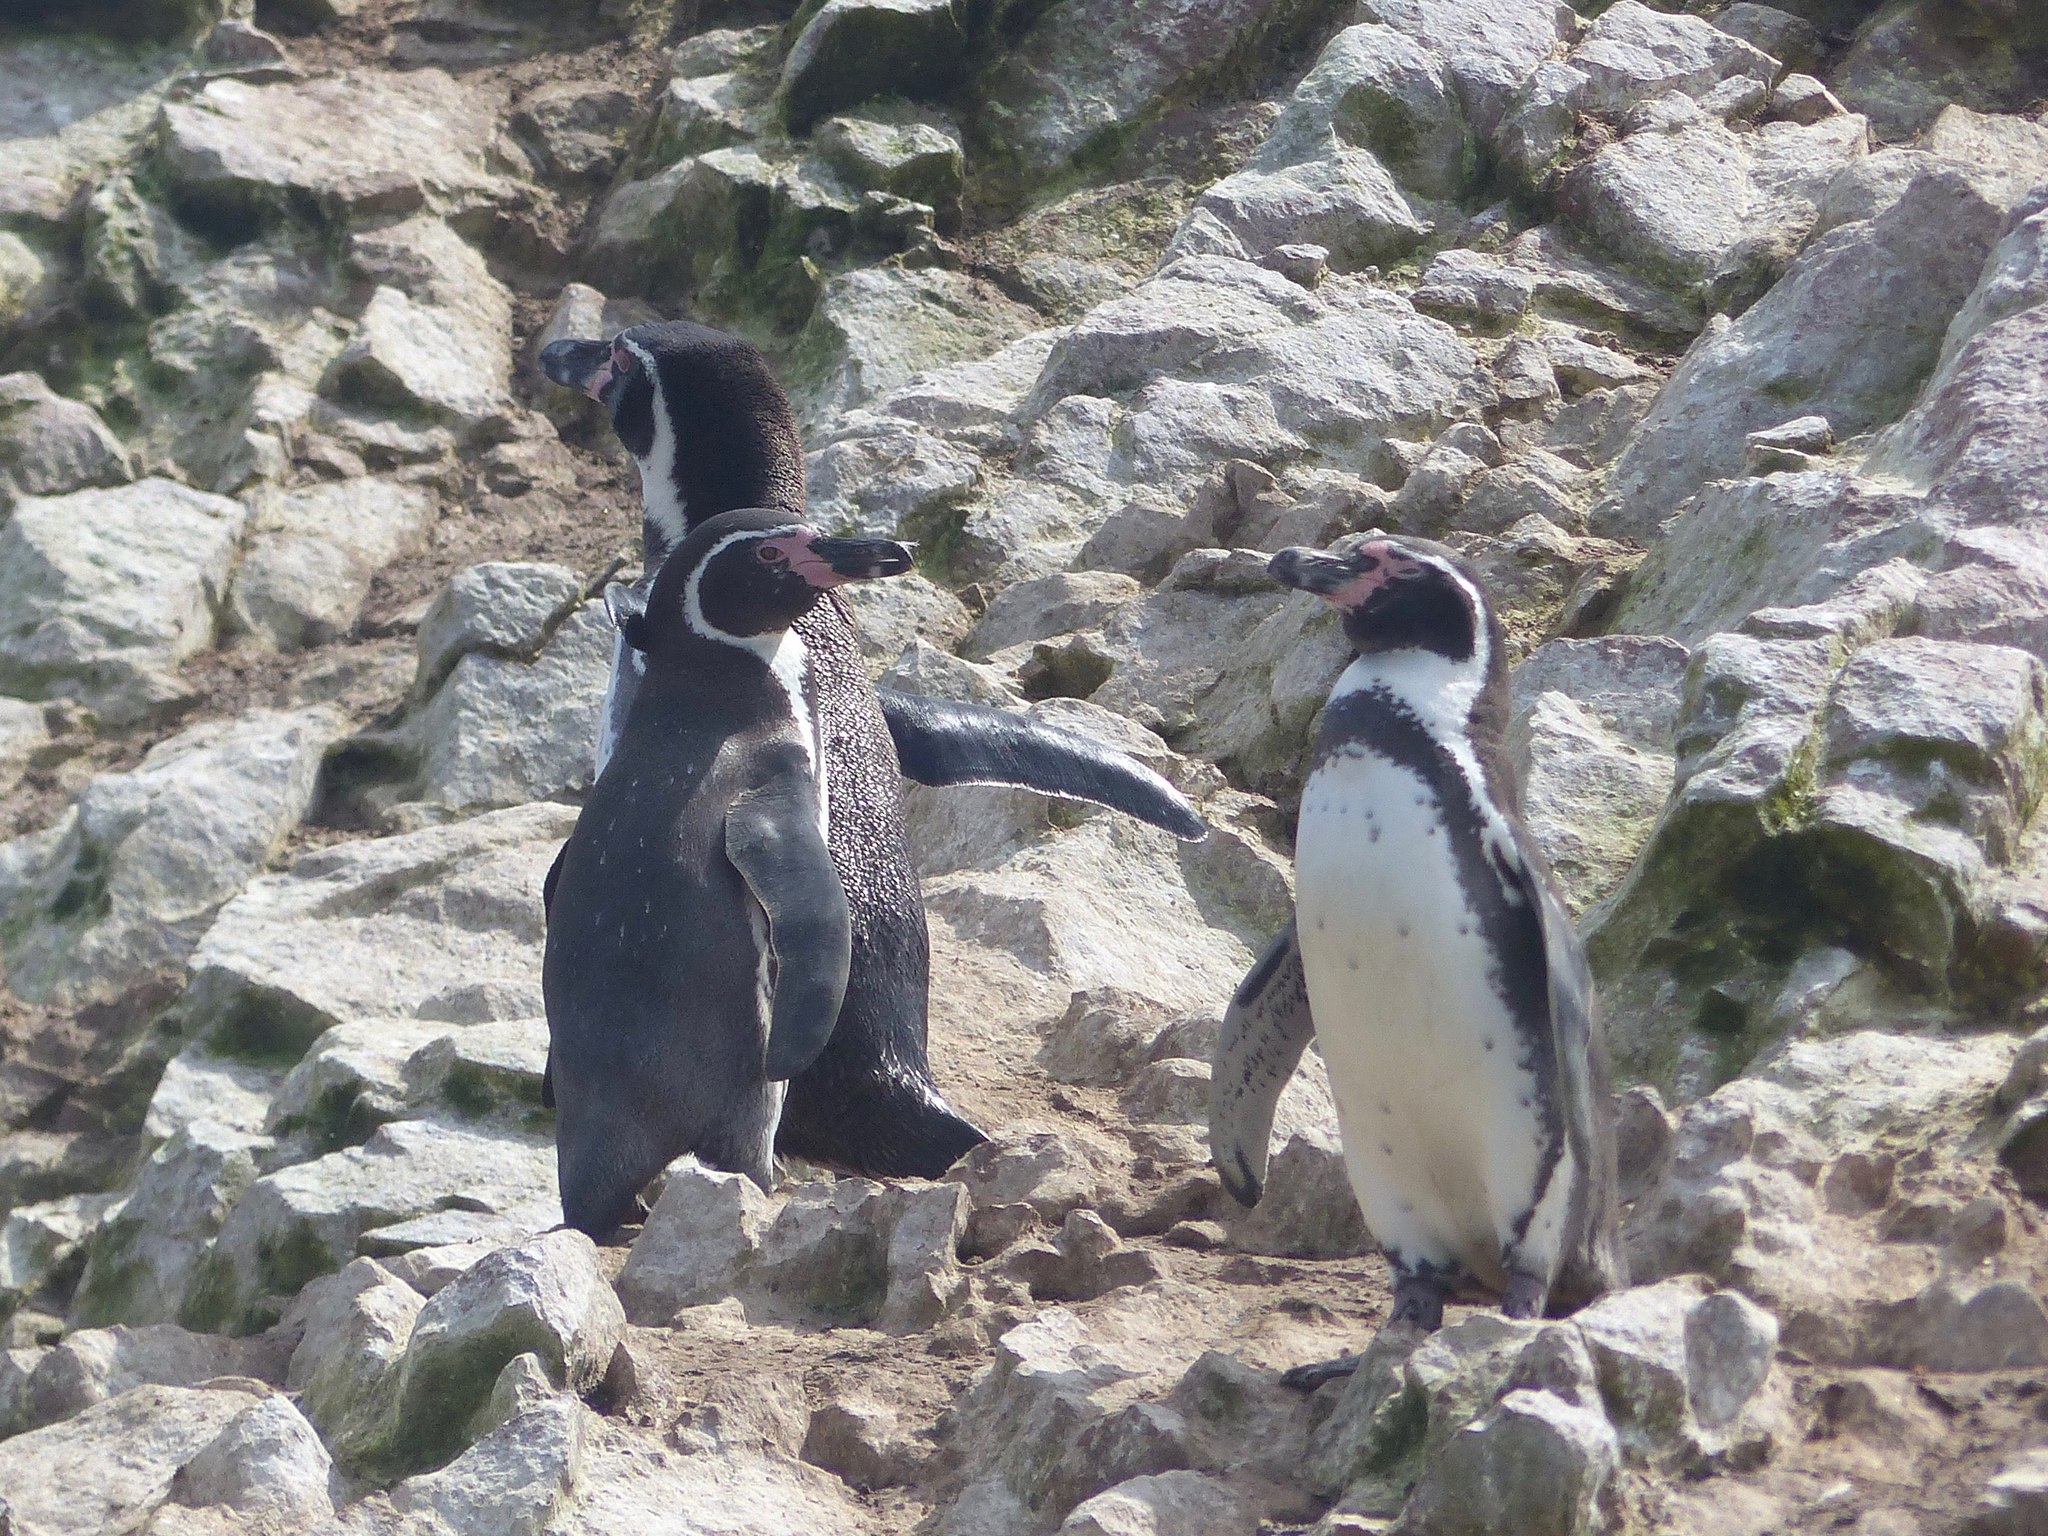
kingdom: Animalia
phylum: Chordata
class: Aves
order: Sphenisciformes
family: Spheniscidae
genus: Spheniscus
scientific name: Spheniscus humboldti
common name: Humboldt penguin
